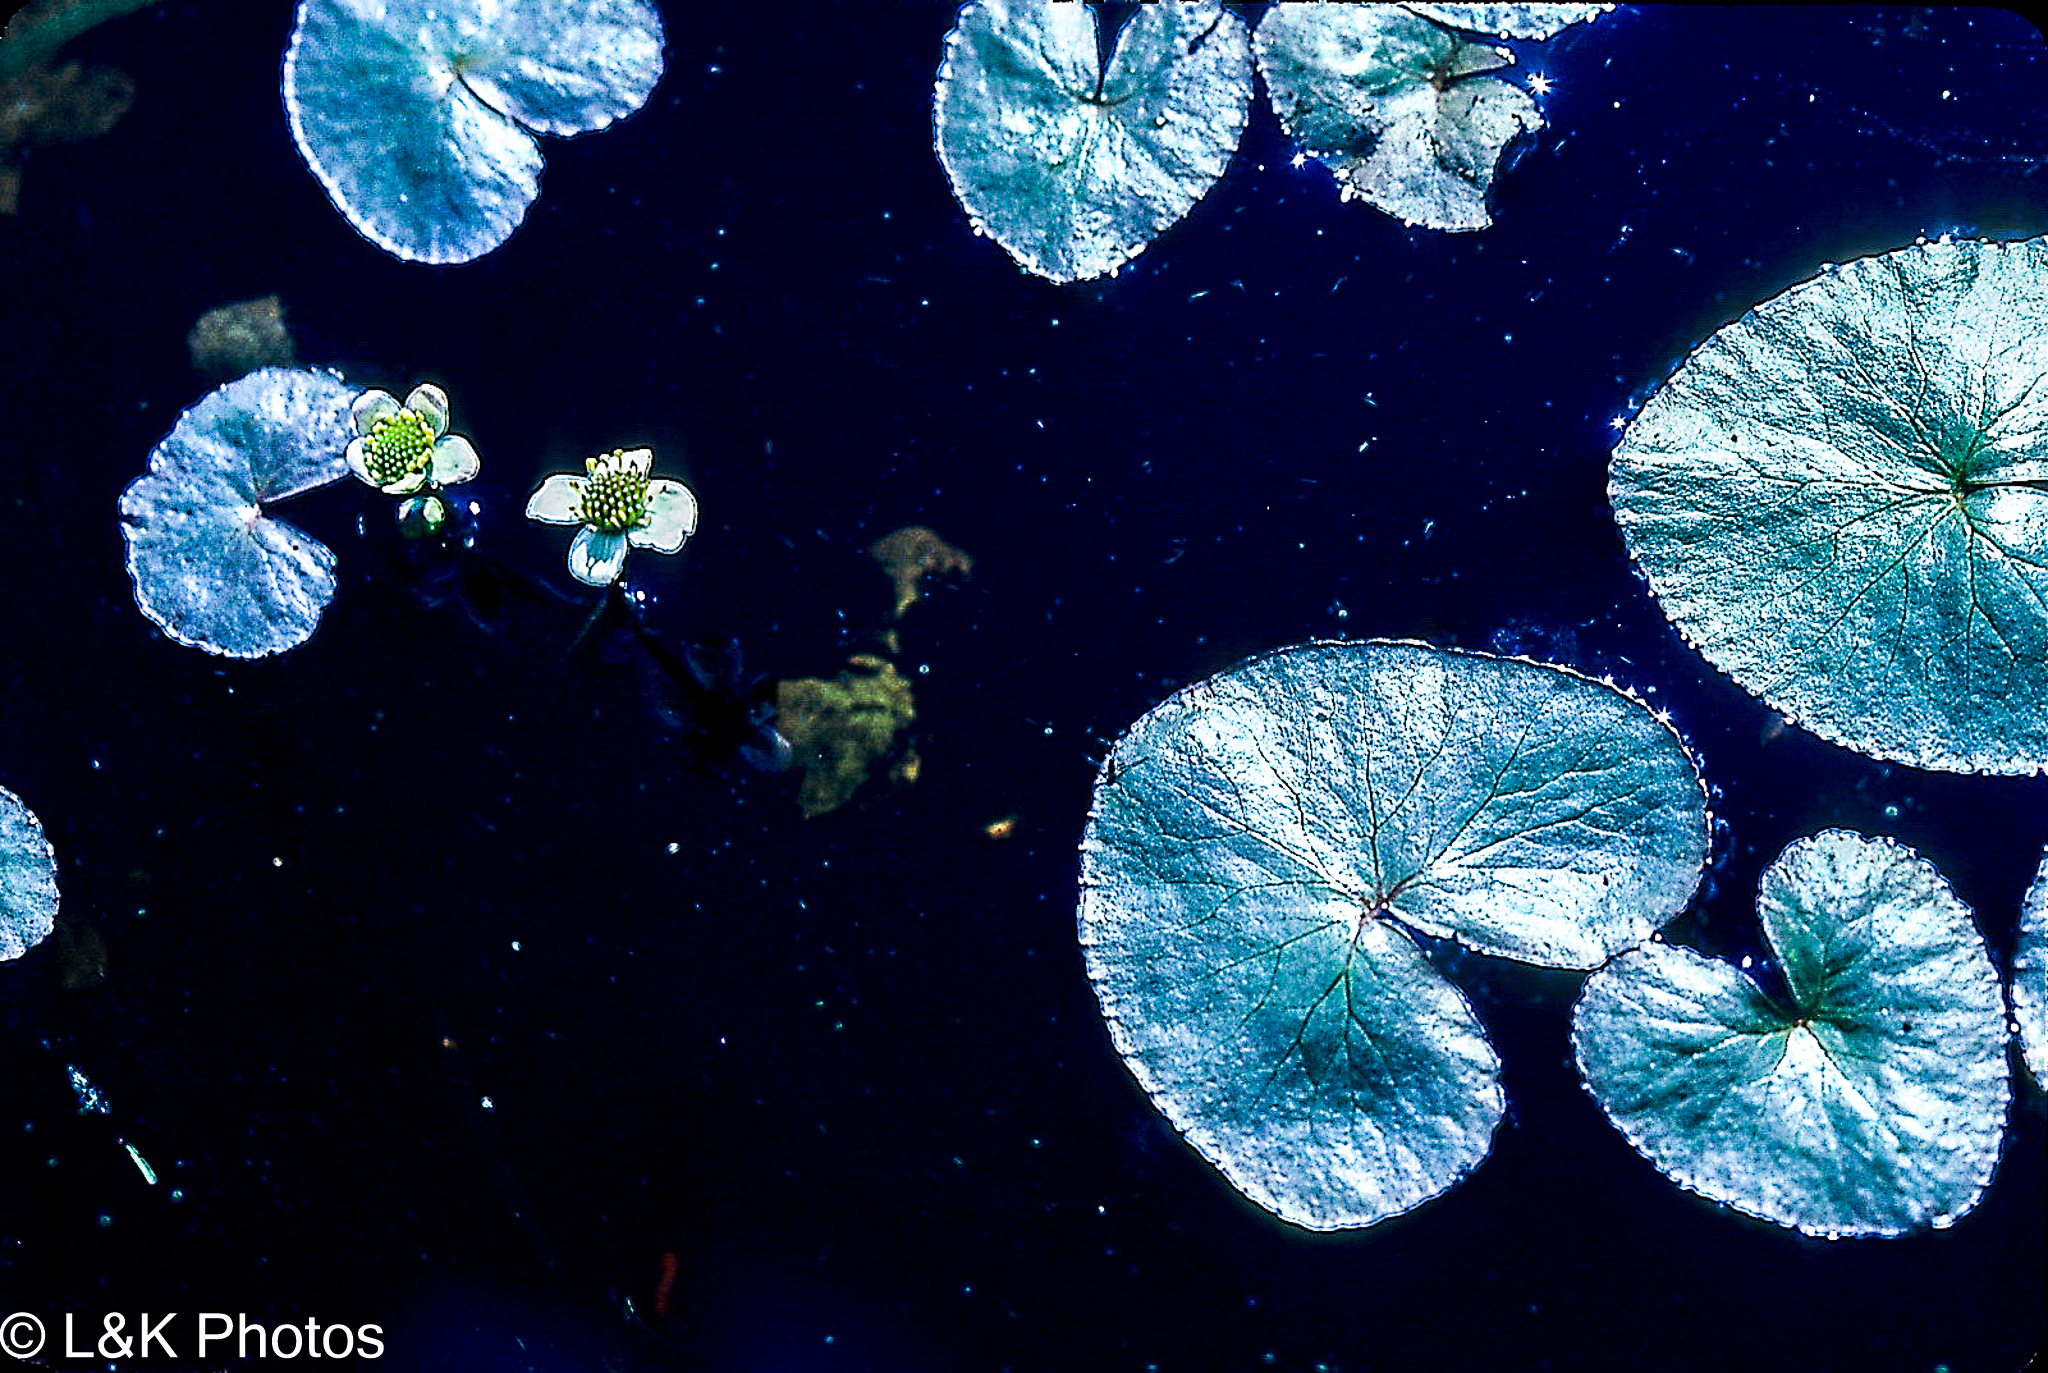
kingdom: Plantae
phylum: Tracheophyta
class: Magnoliopsida
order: Ranunculales
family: Ranunculaceae
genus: Caltha
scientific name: Caltha natans
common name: Floating marsh marigold
